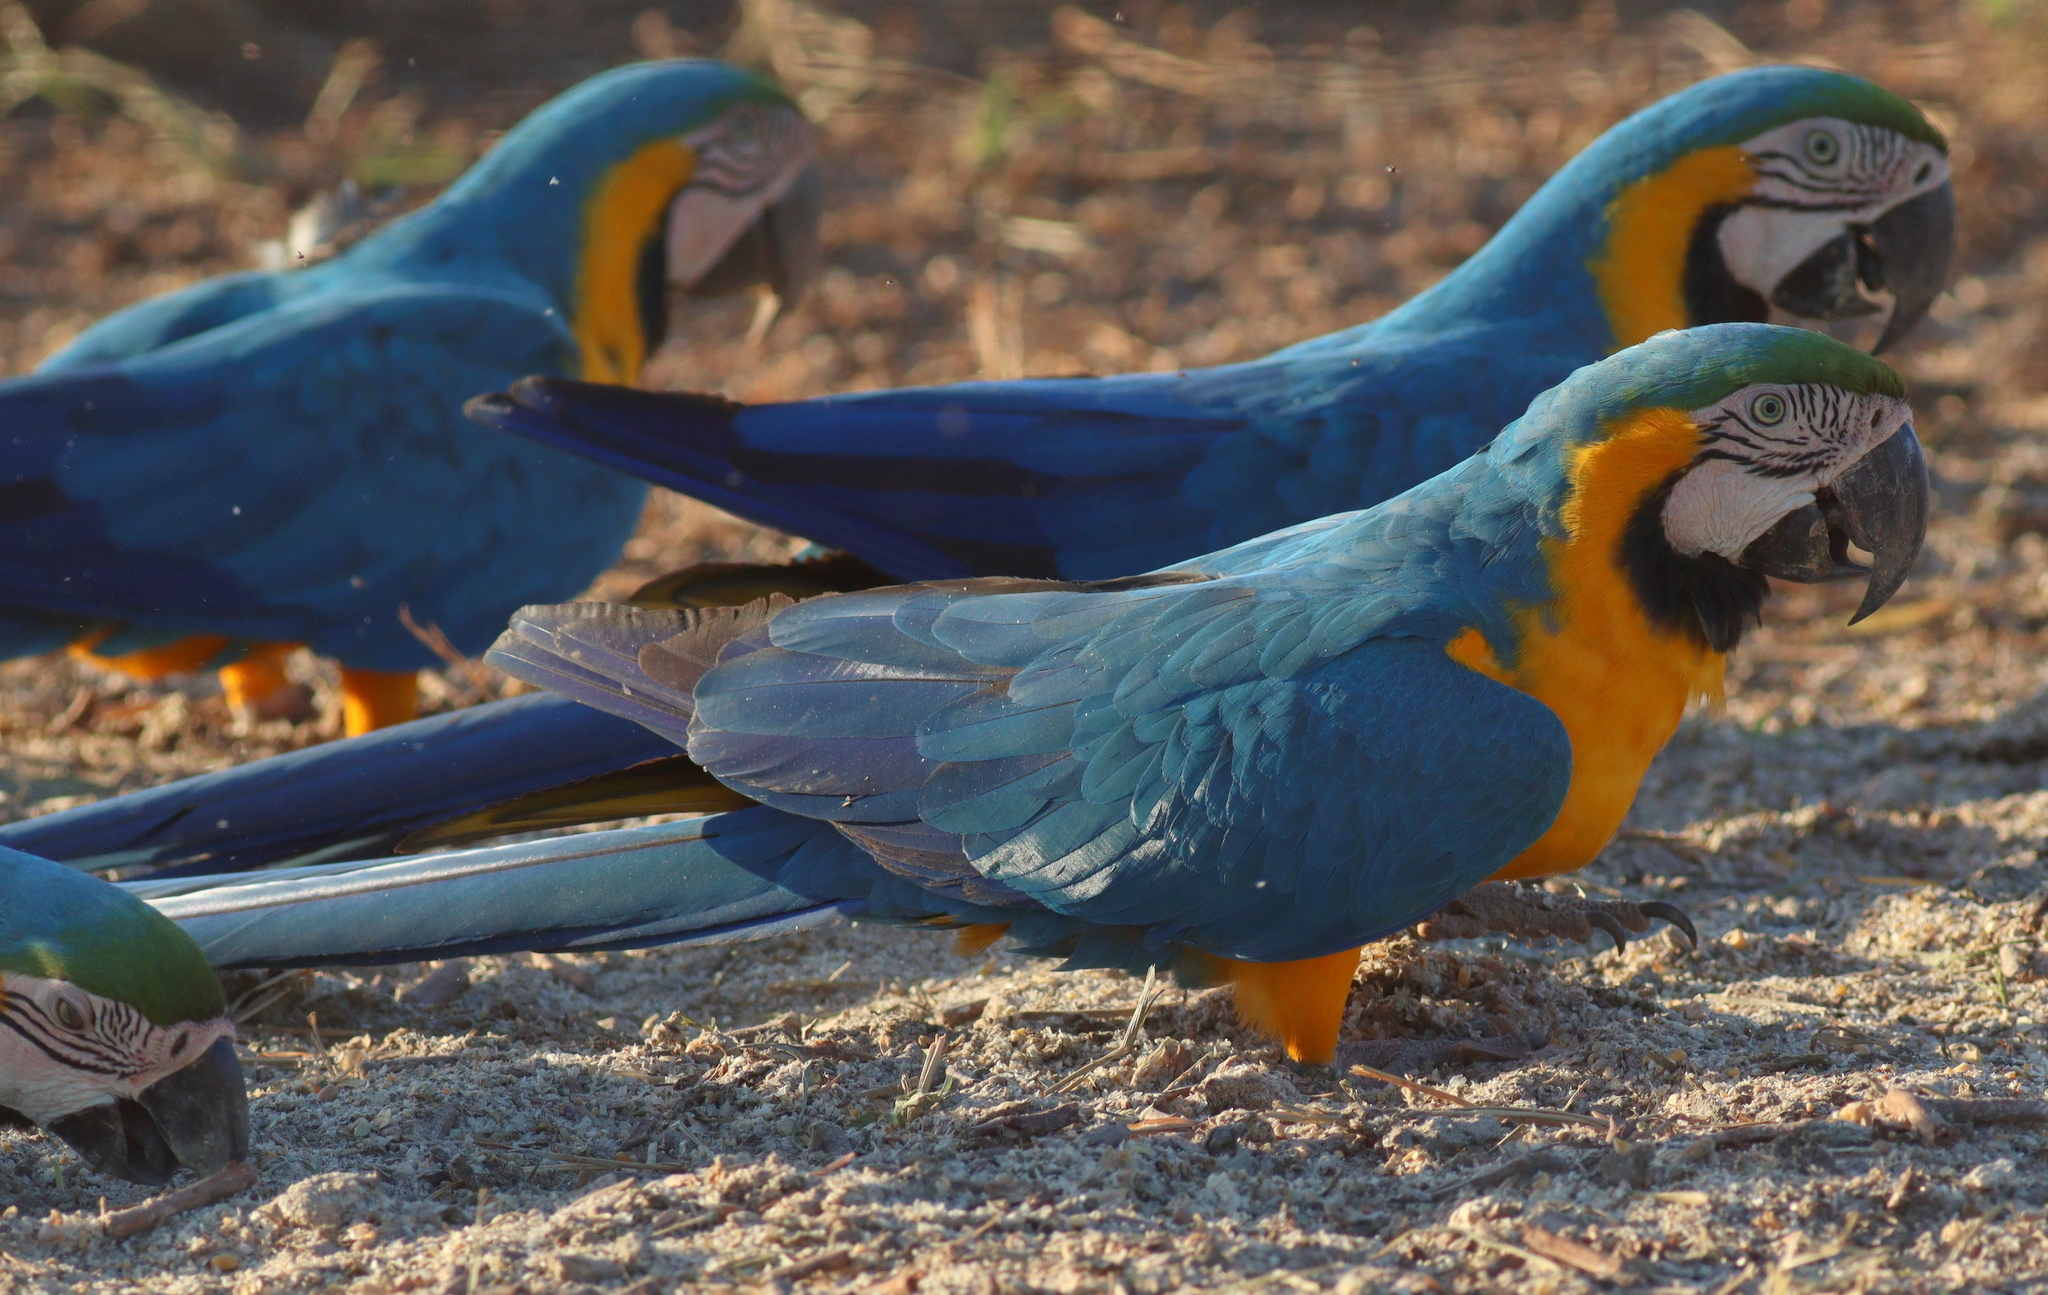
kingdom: Animalia
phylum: Chordata
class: Aves
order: Psittaciformes
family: Psittacidae
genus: Ara
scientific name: Ara ararauna
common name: Blue-and-yellow macaw
